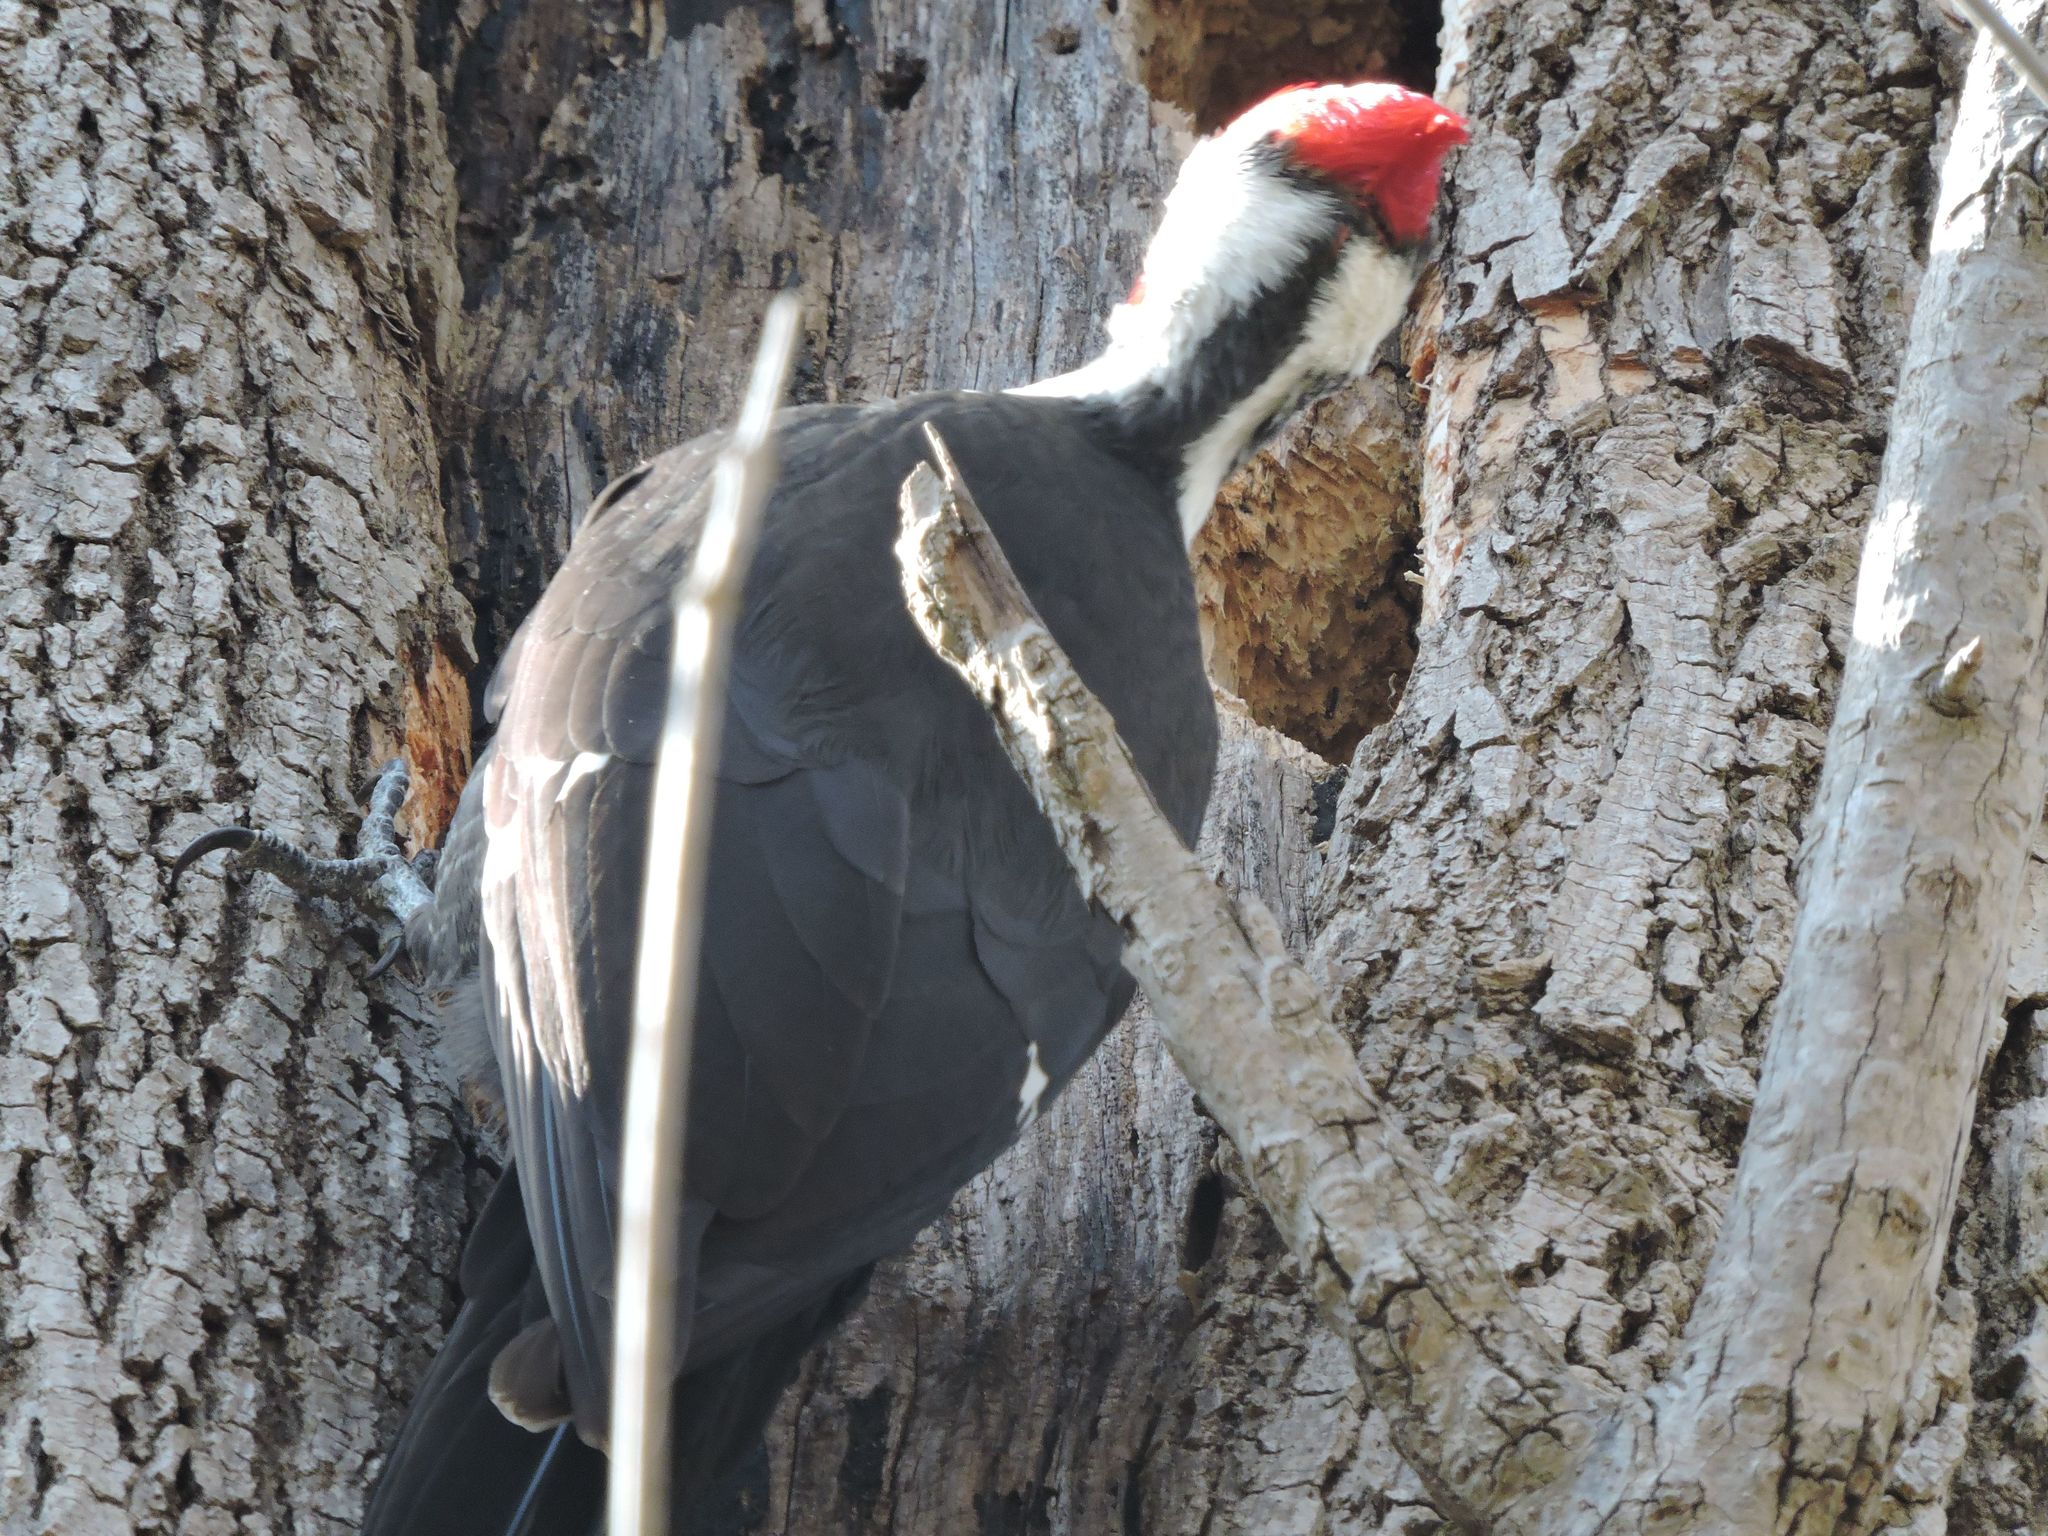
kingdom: Animalia
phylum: Chordata
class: Aves
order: Piciformes
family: Picidae
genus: Dryocopus
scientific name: Dryocopus pileatus
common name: Pileated woodpecker
